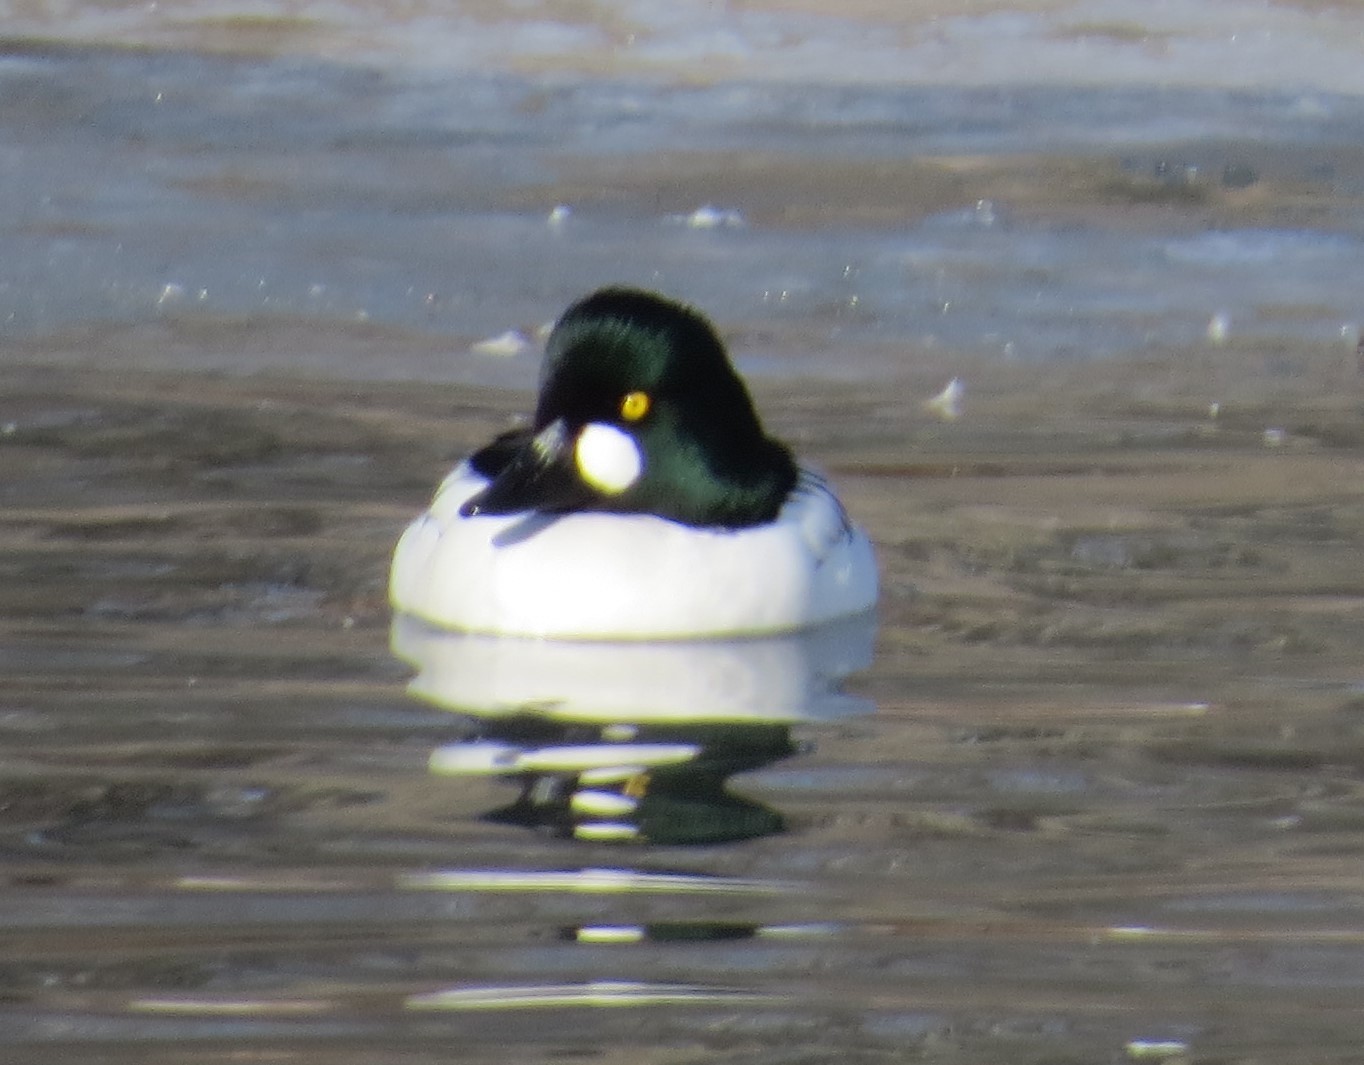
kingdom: Animalia
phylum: Chordata
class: Aves
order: Anseriformes
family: Anatidae
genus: Bucephala
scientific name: Bucephala clangula
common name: Common goldeneye
